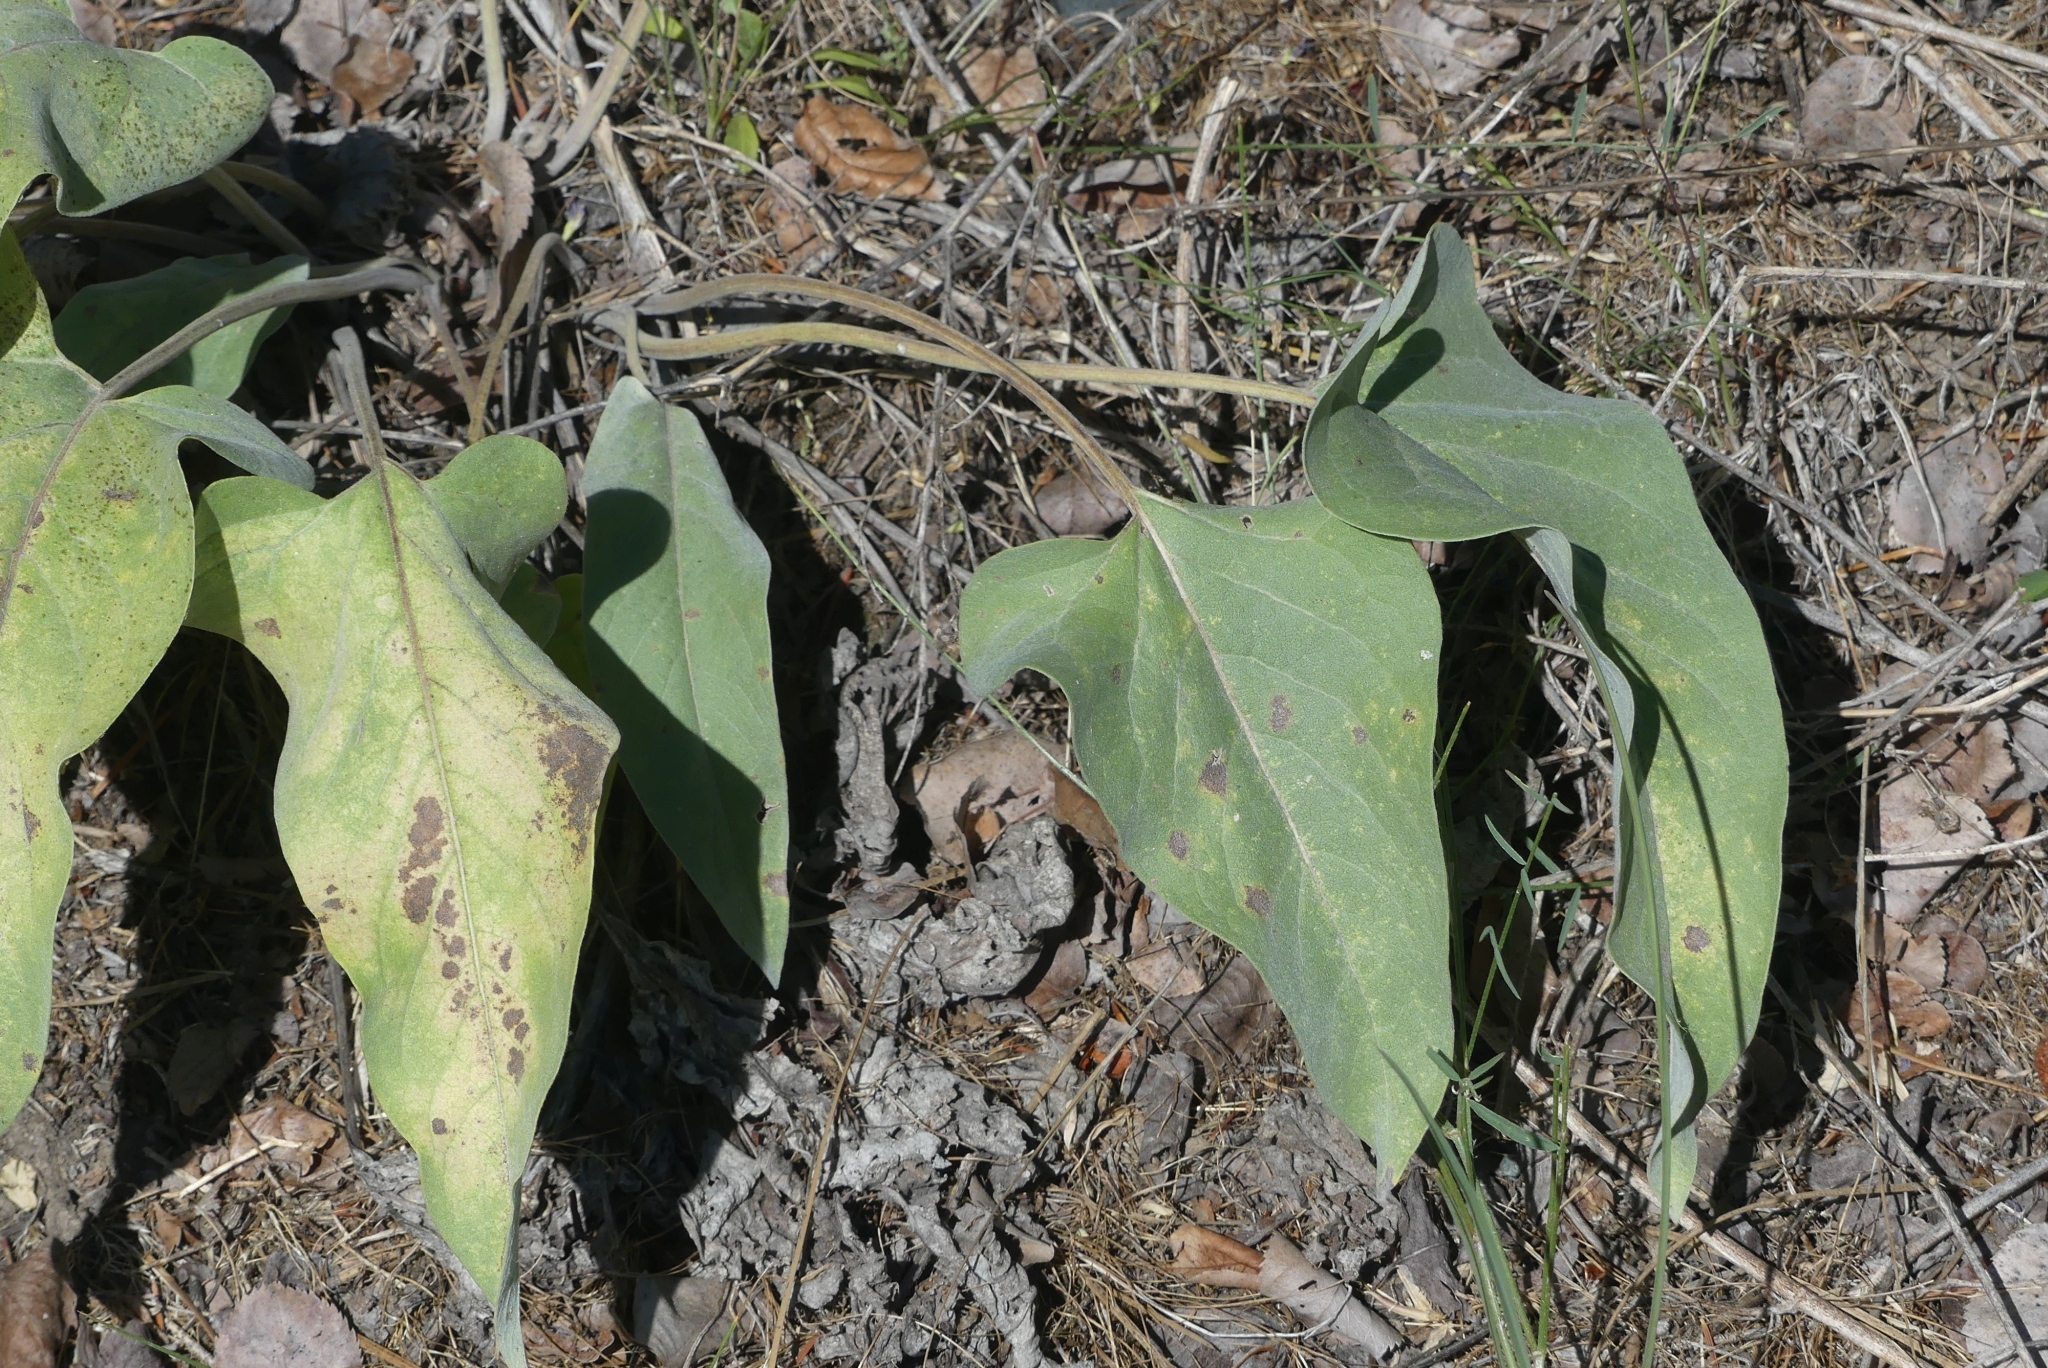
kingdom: Plantae
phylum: Tracheophyta
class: Magnoliopsida
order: Asterales
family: Asteraceae
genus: Wyethia
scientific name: Wyethia sagittata
